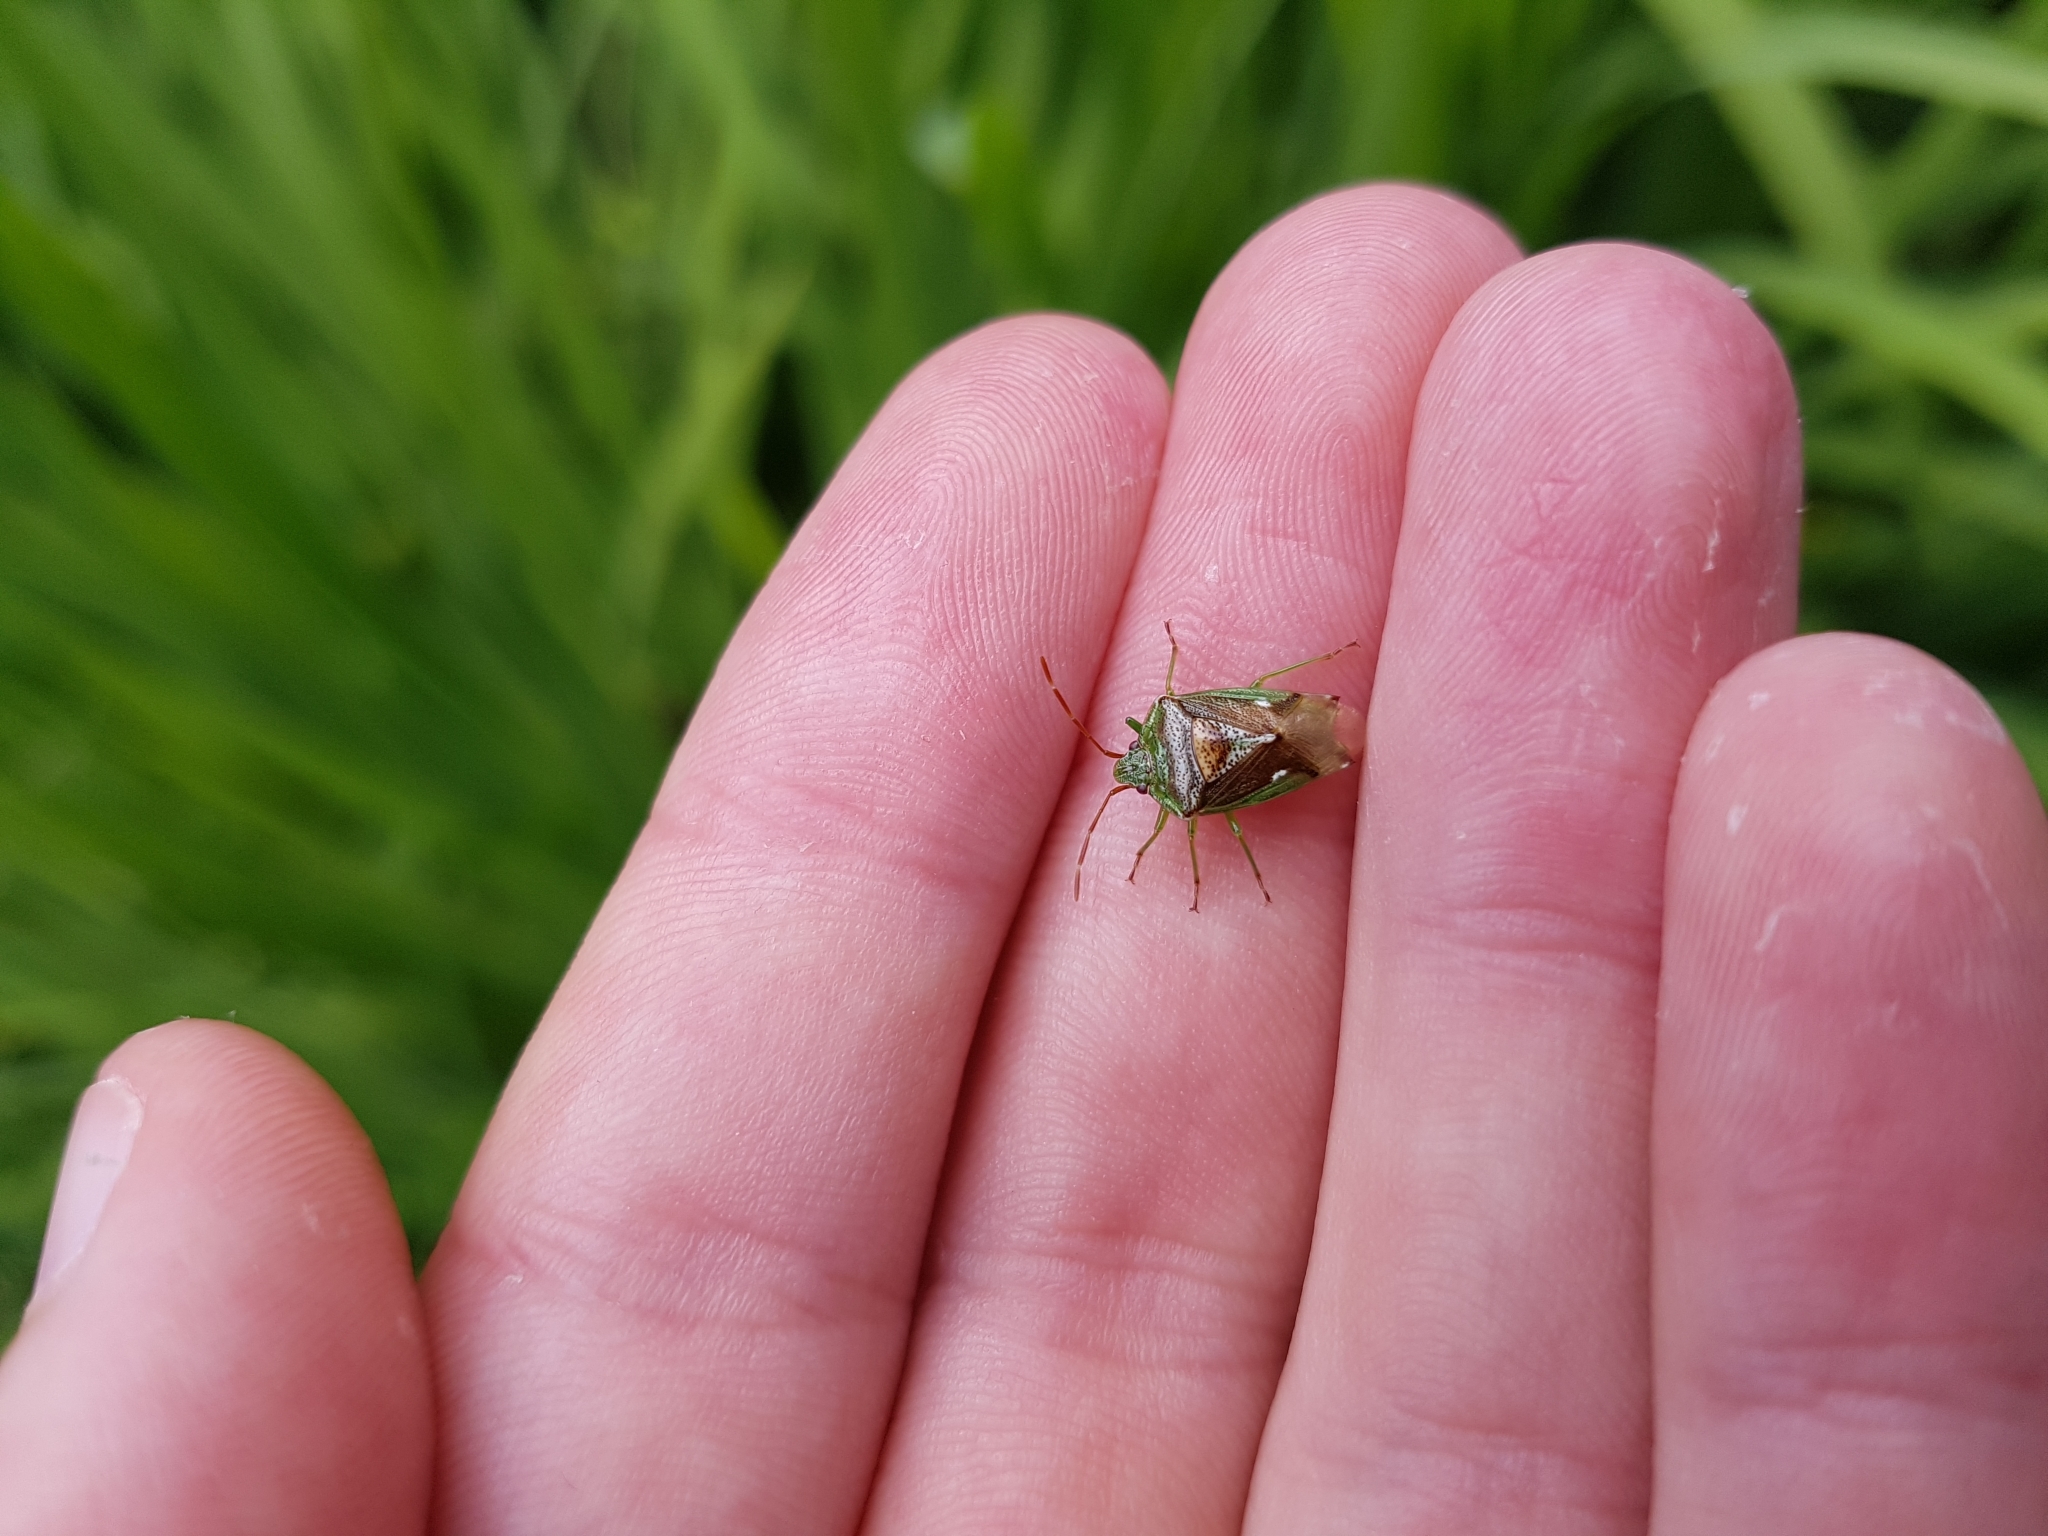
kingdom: Animalia
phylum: Arthropoda
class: Insecta
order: Hemiptera
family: Acanthosomatidae
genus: Oncacontias
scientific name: Oncacontias vittatus
